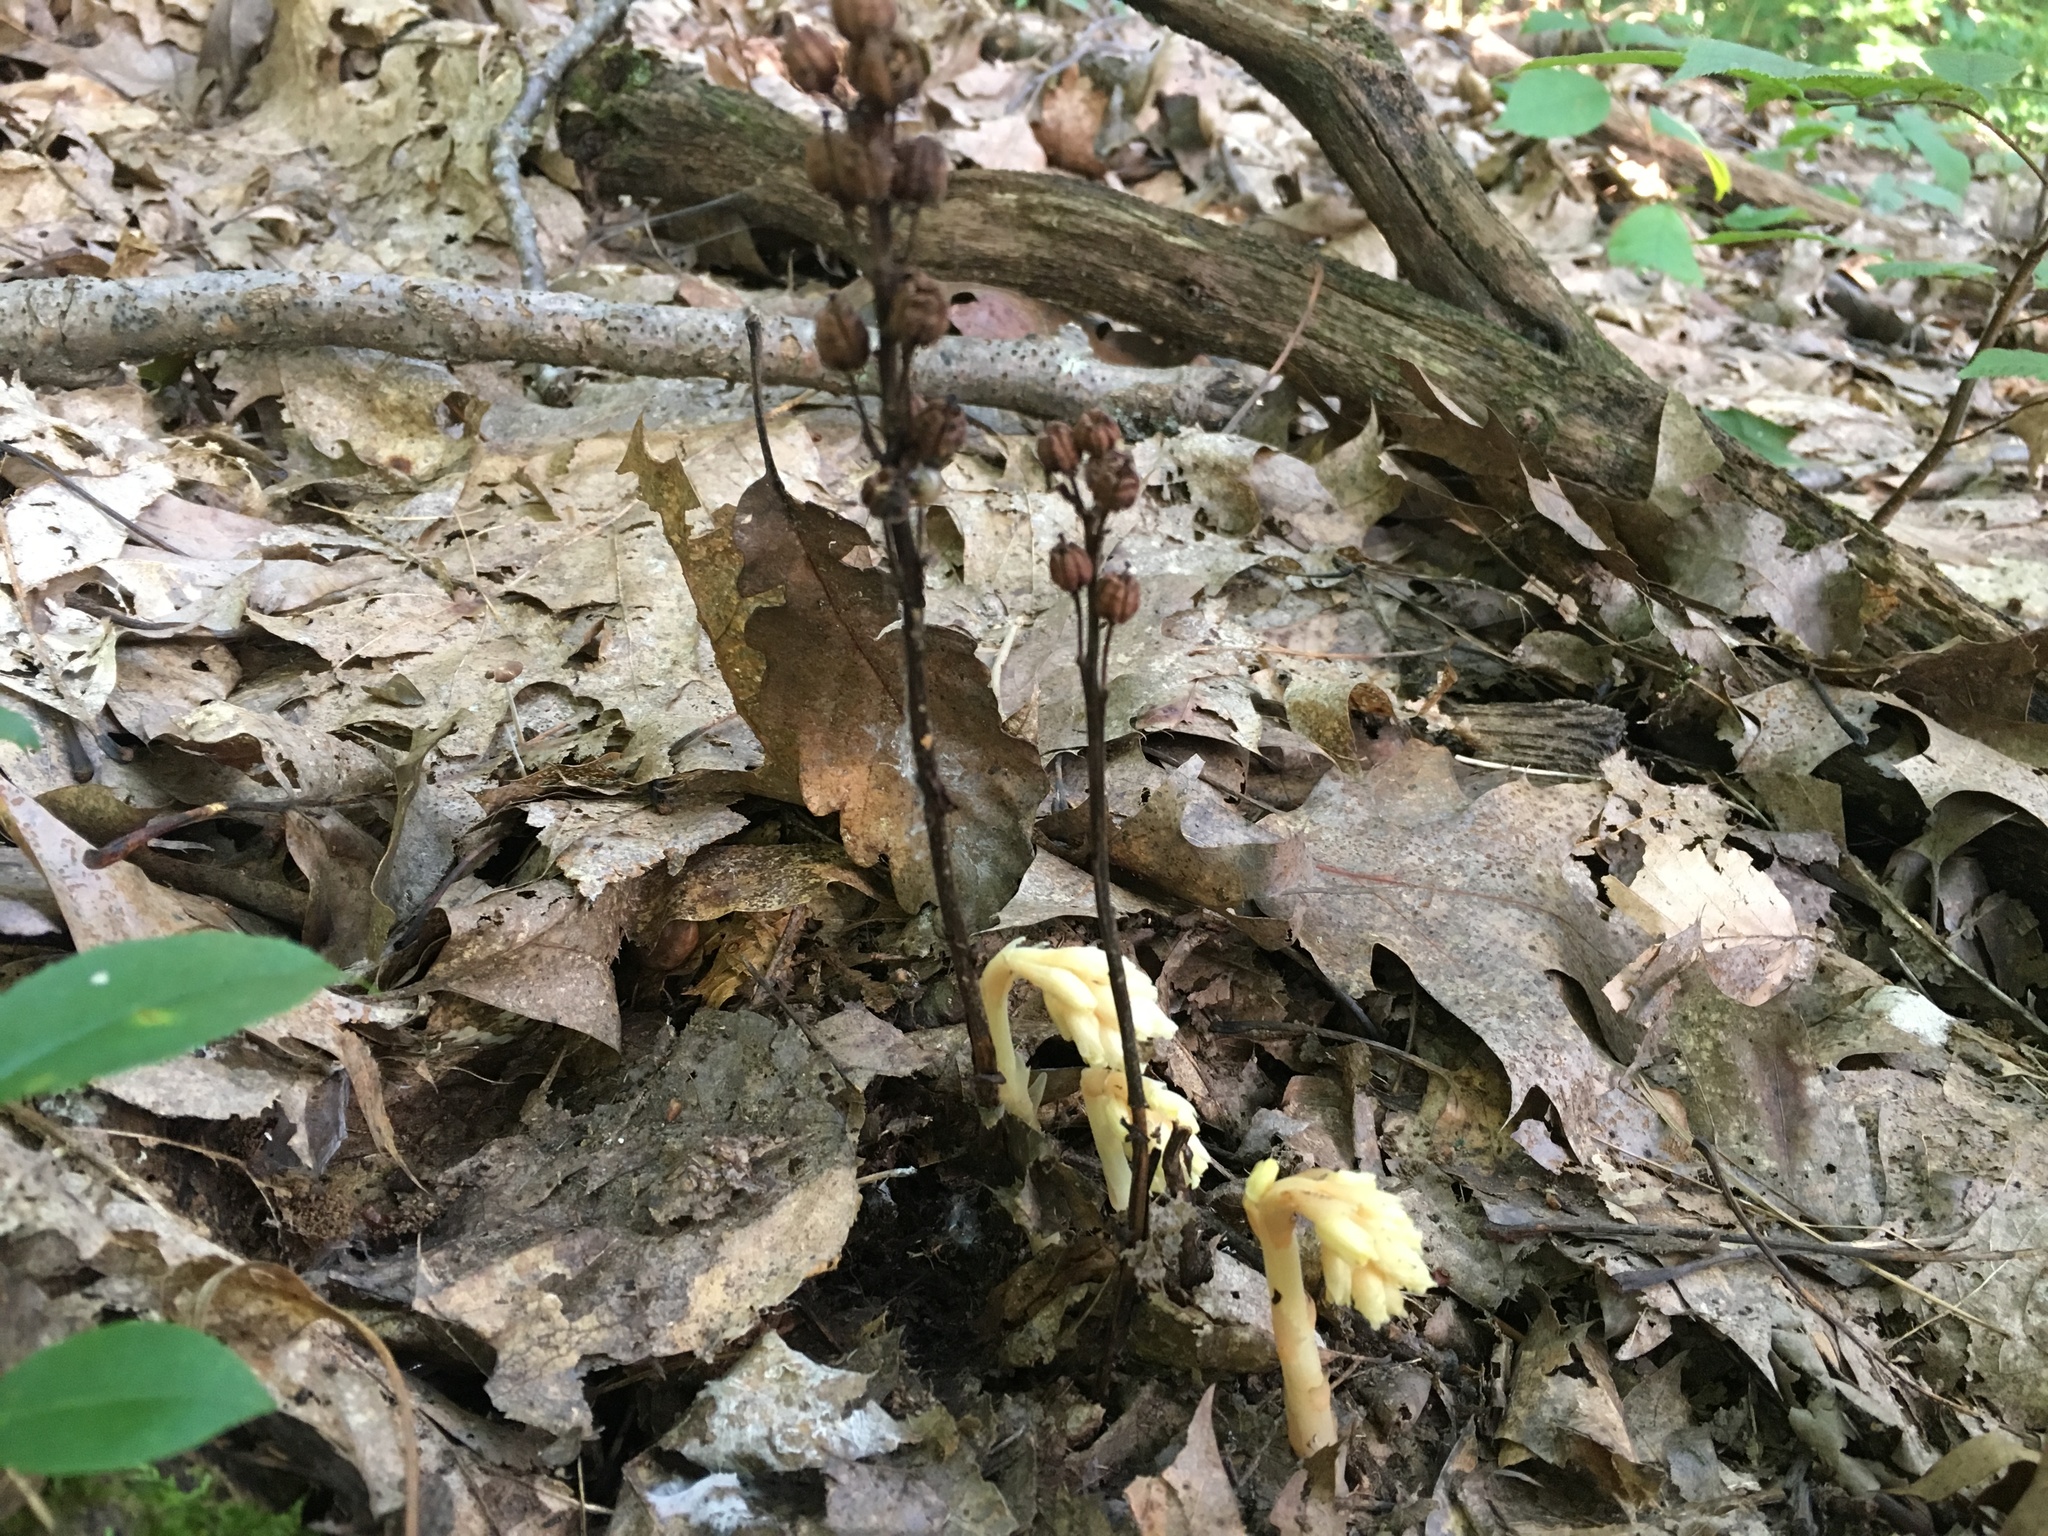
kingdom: Plantae
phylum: Tracheophyta
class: Magnoliopsida
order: Ericales
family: Ericaceae
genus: Hypopitys
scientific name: Hypopitys monotropa
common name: Yellow bird's-nest
